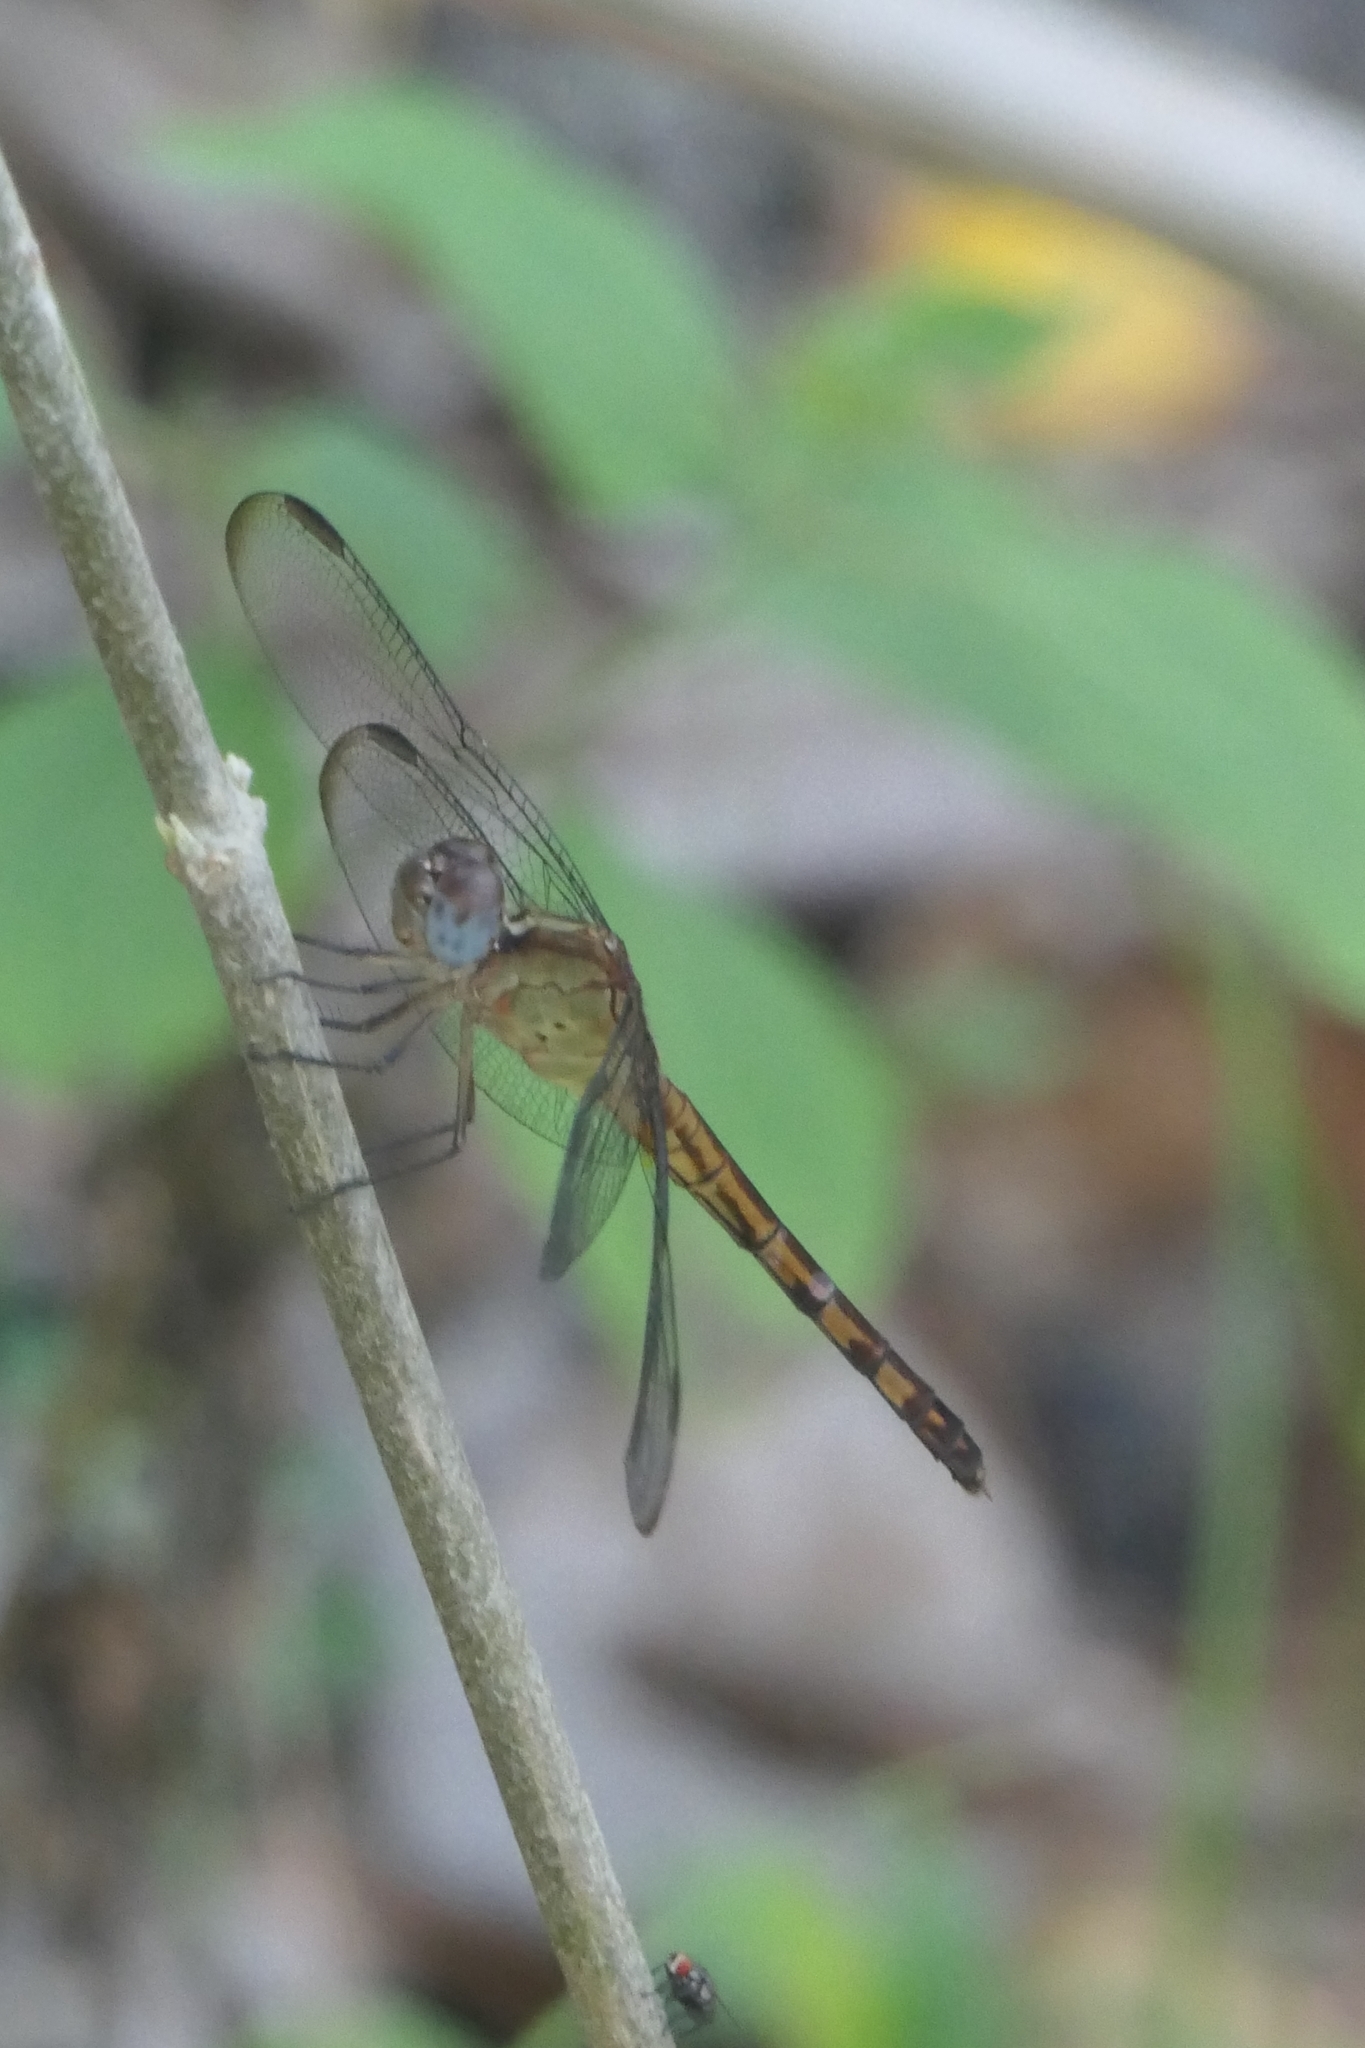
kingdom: Animalia
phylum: Arthropoda
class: Insecta
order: Odonata
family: Libellulidae
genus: Erythrodiplax
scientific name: Erythrodiplax umbrata
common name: Band-winged dragonlet
